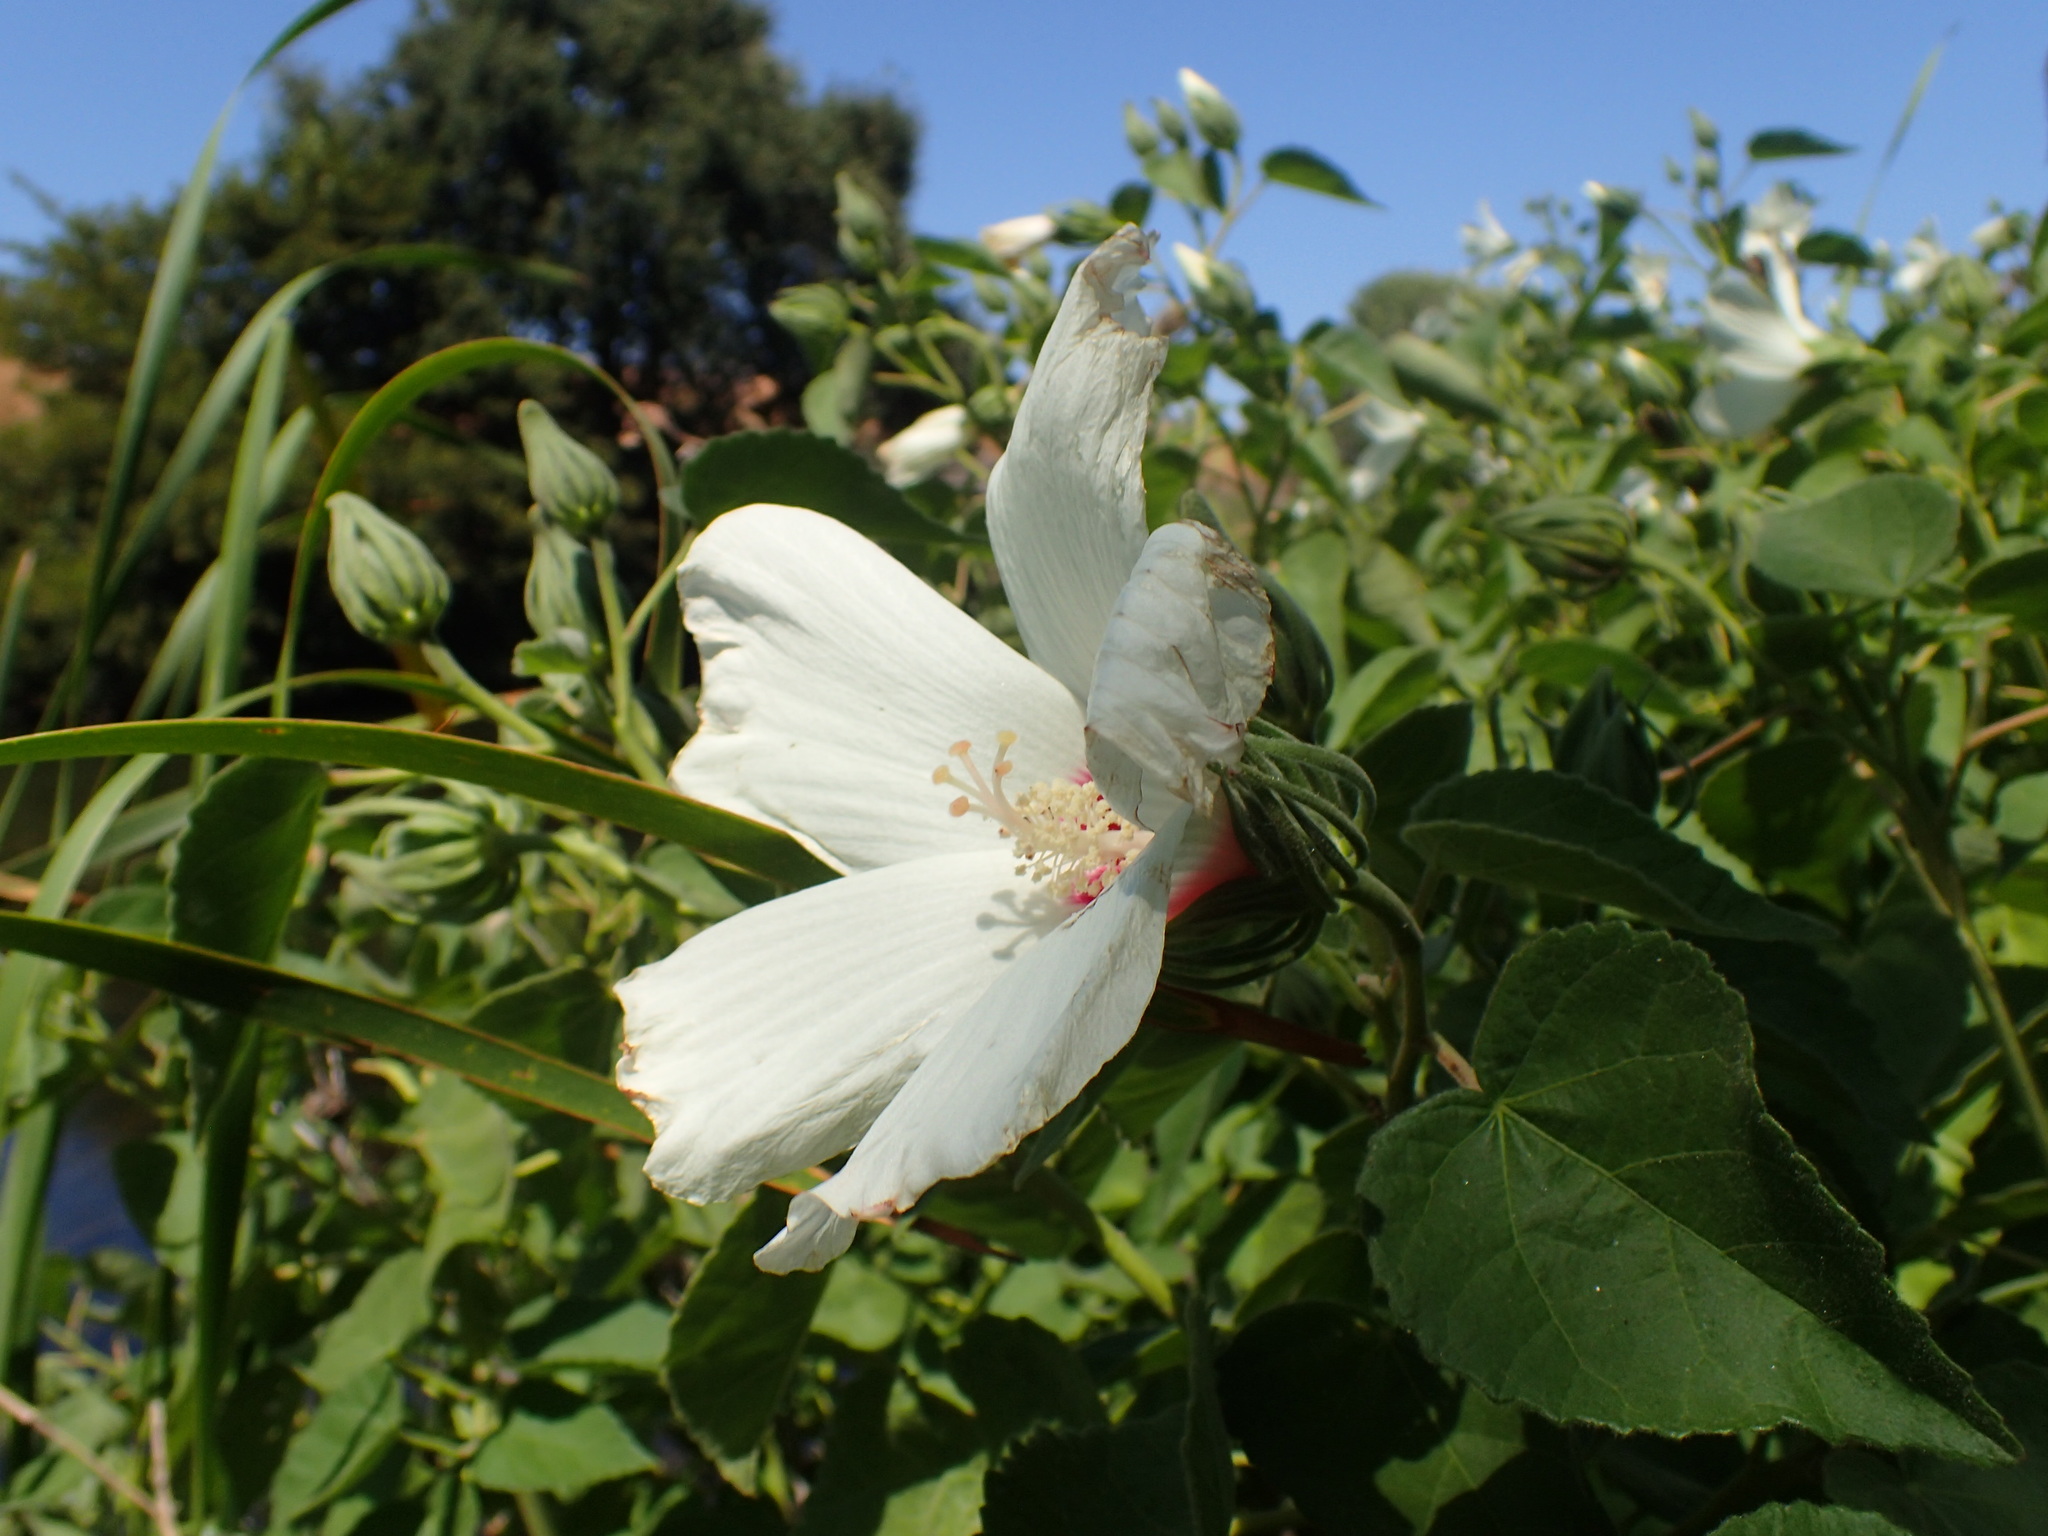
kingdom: Plantae
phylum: Tracheophyta
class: Magnoliopsida
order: Malvales
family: Malvaceae
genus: Hibiscus
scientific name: Hibiscus moscheutos
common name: Common rose-mallow
